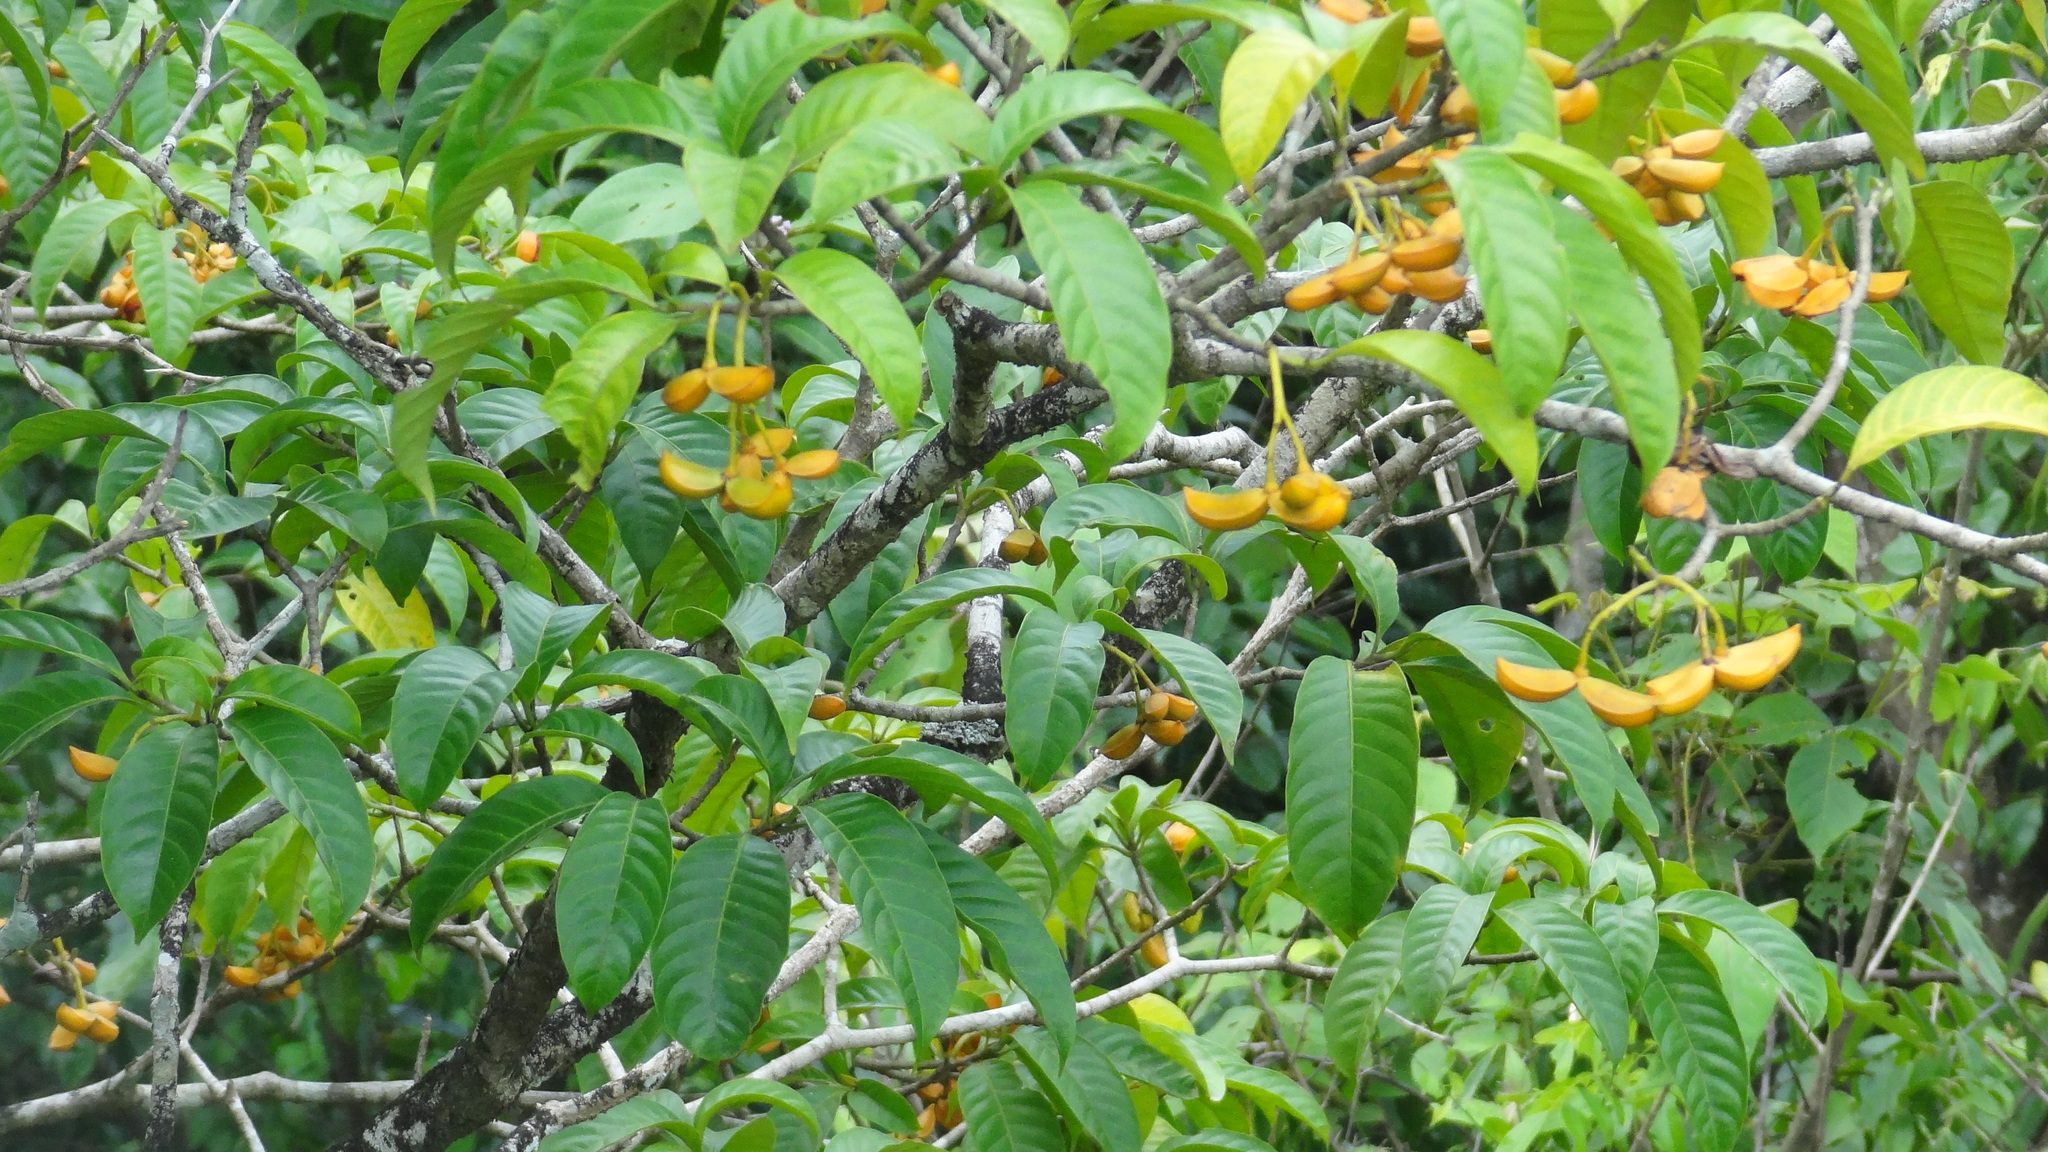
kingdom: Plantae
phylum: Tracheophyta
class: Magnoliopsida
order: Gentianales
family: Apocynaceae
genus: Tabernaemontana
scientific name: Tabernaemontana alternifolia
